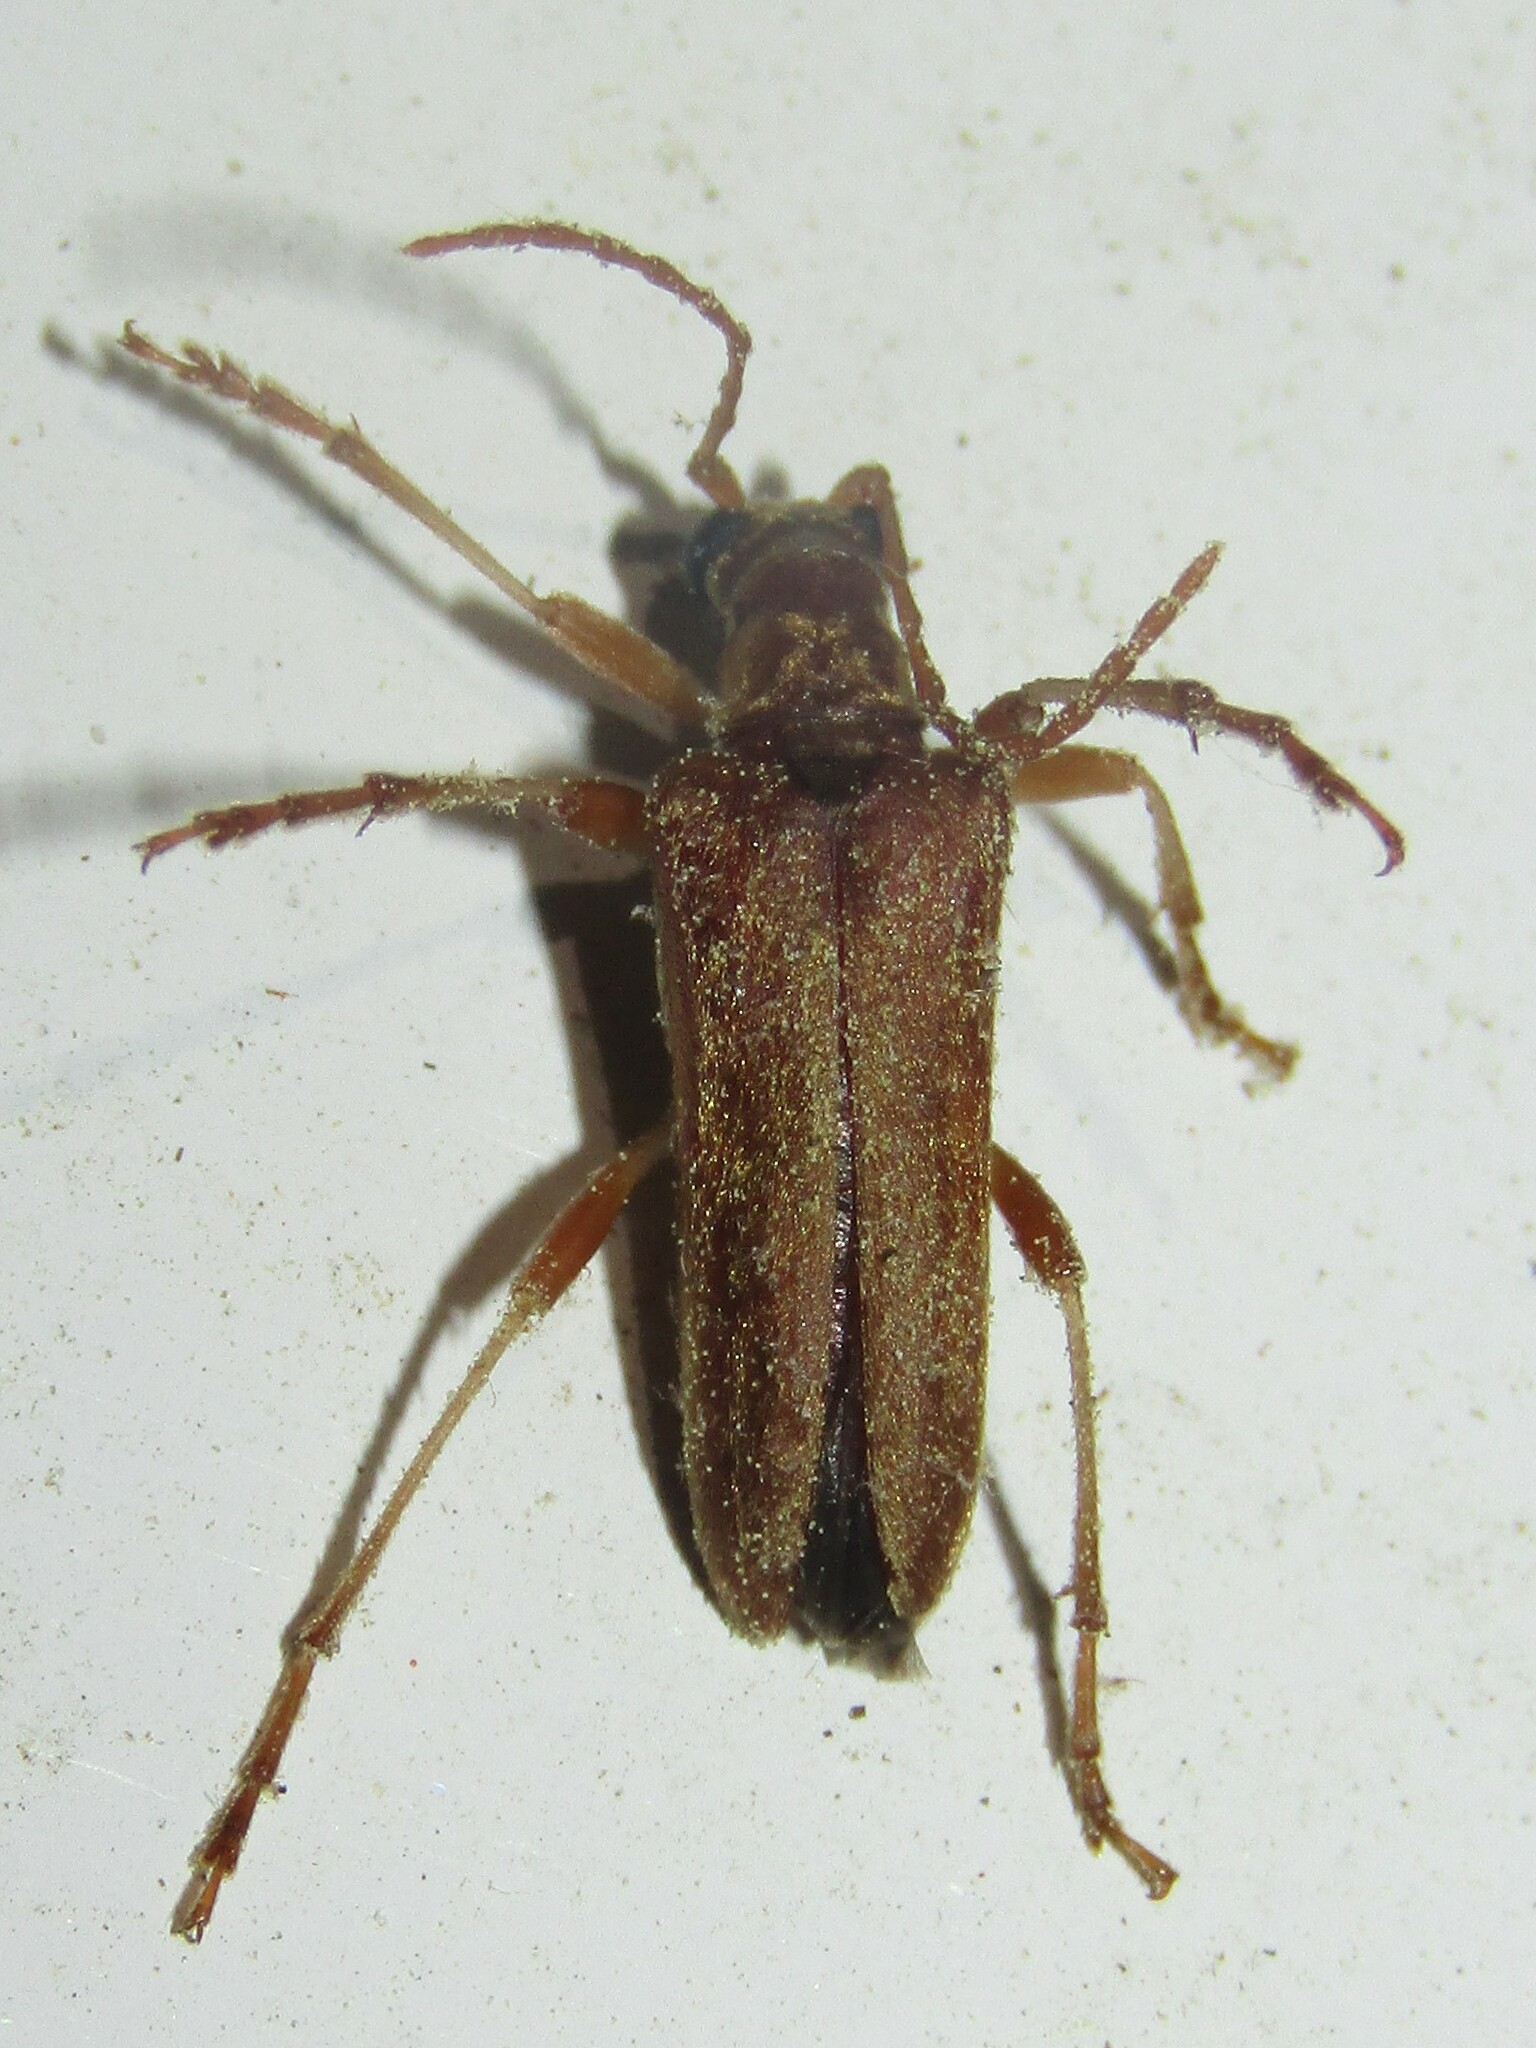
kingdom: Animalia
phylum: Arthropoda
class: Insecta
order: Coleoptera
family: Cerambycidae
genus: Stenocorus
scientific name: Stenocorus cinnamopterus
